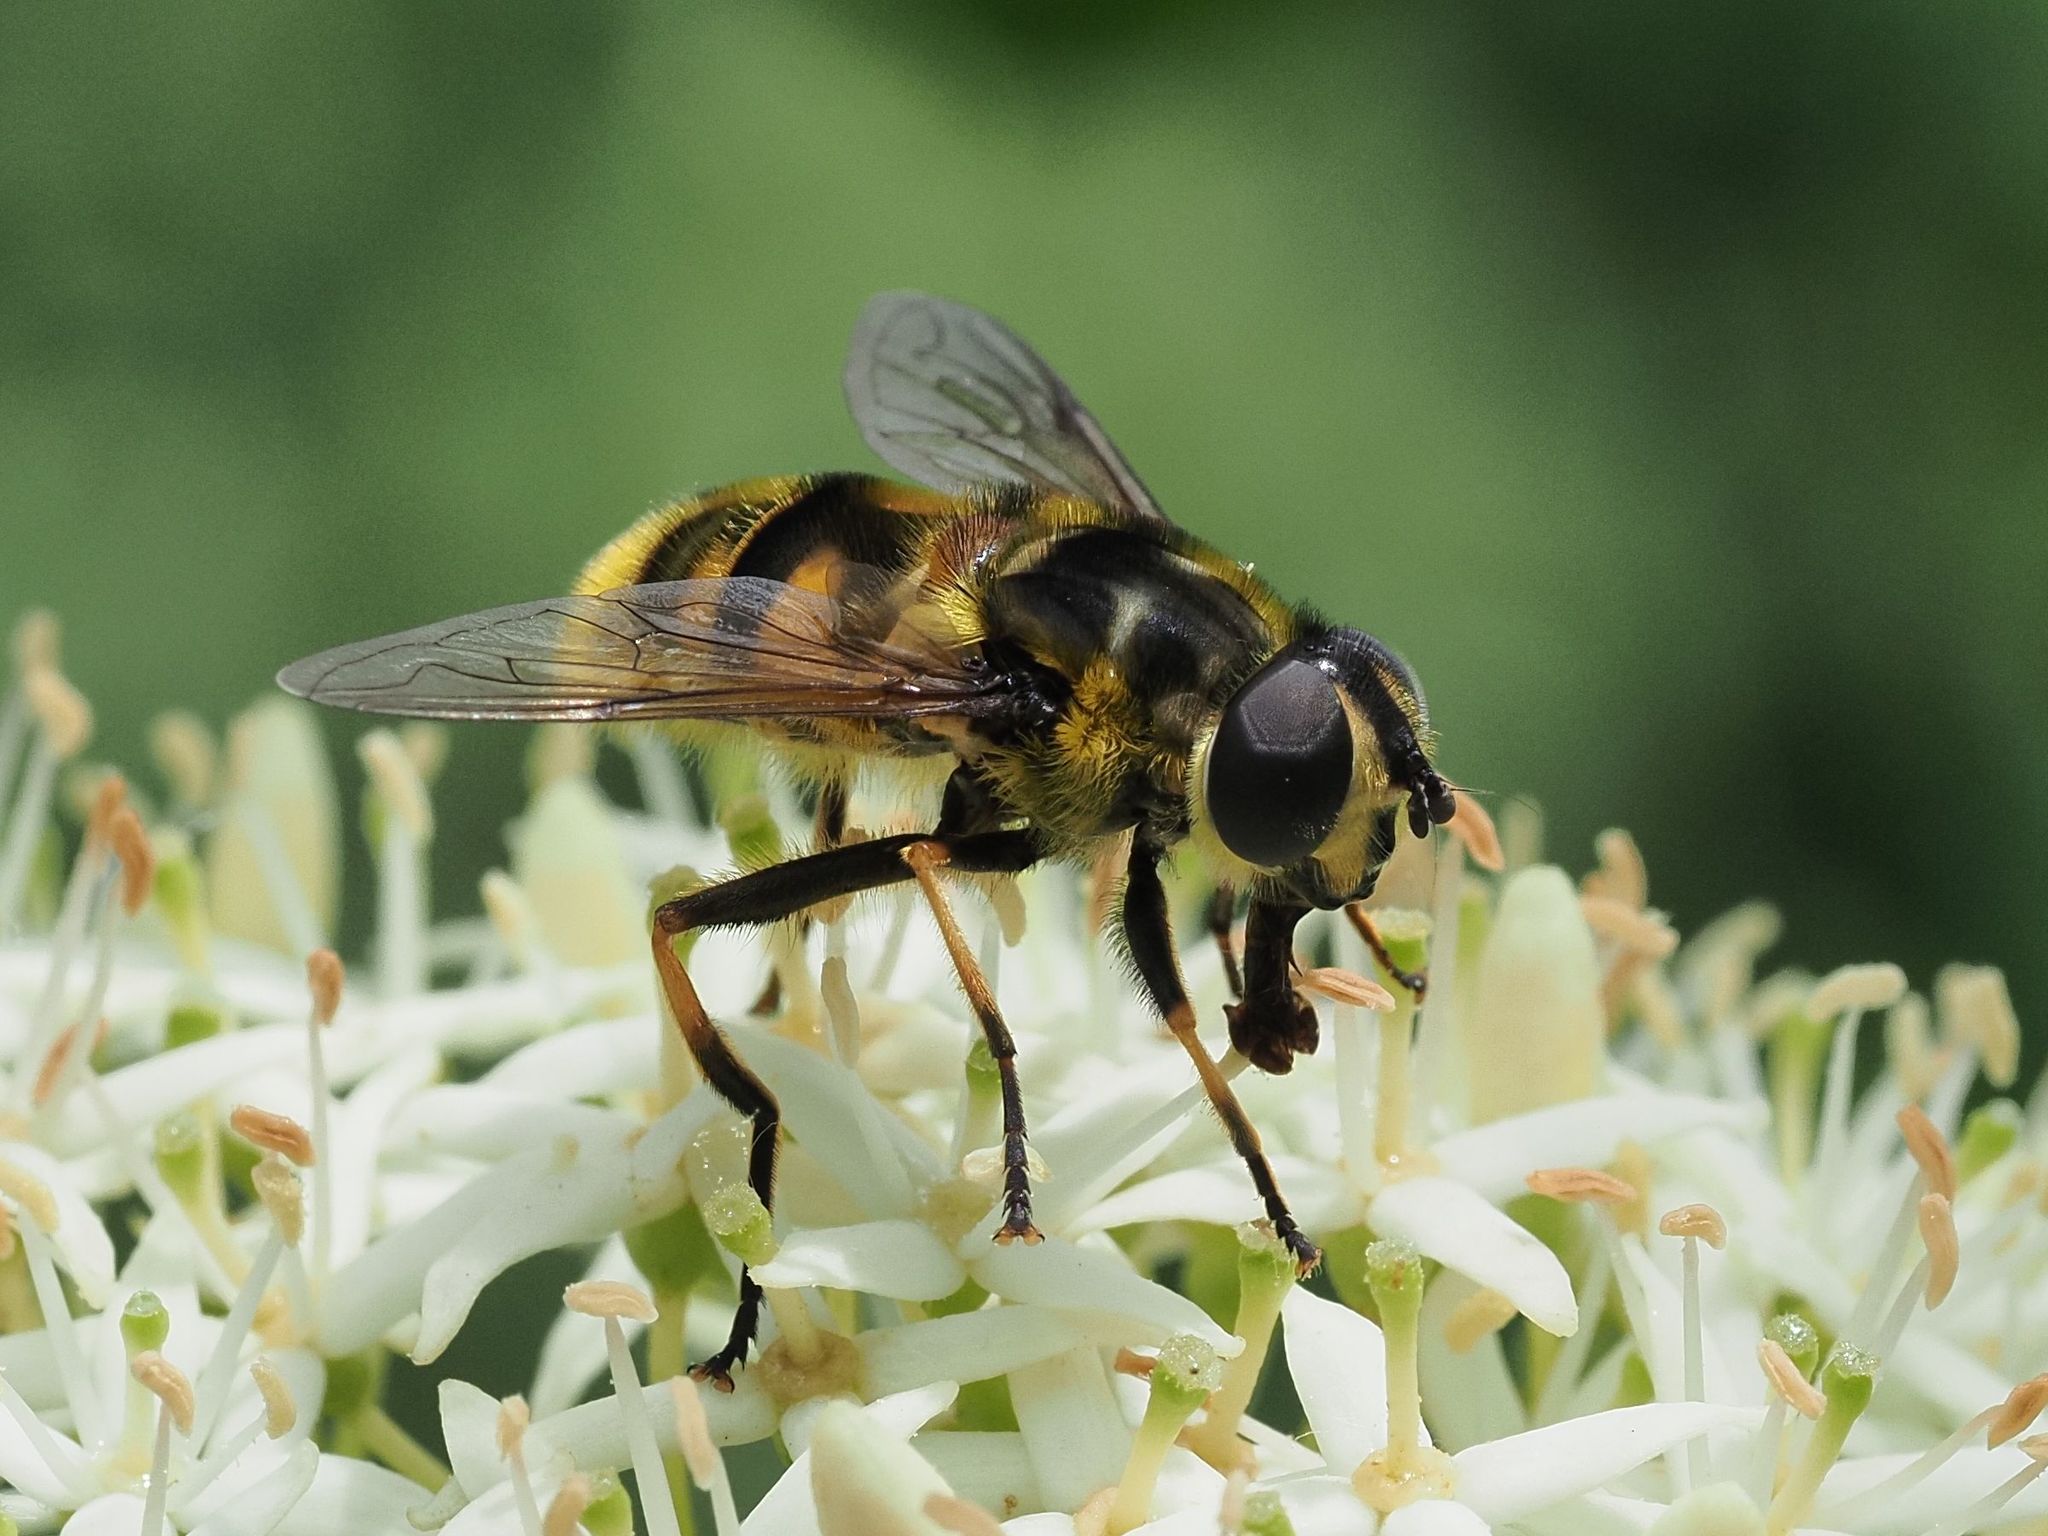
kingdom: Animalia
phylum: Arthropoda
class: Insecta
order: Diptera
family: Syrphidae
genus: Myathropa
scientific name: Myathropa florea
